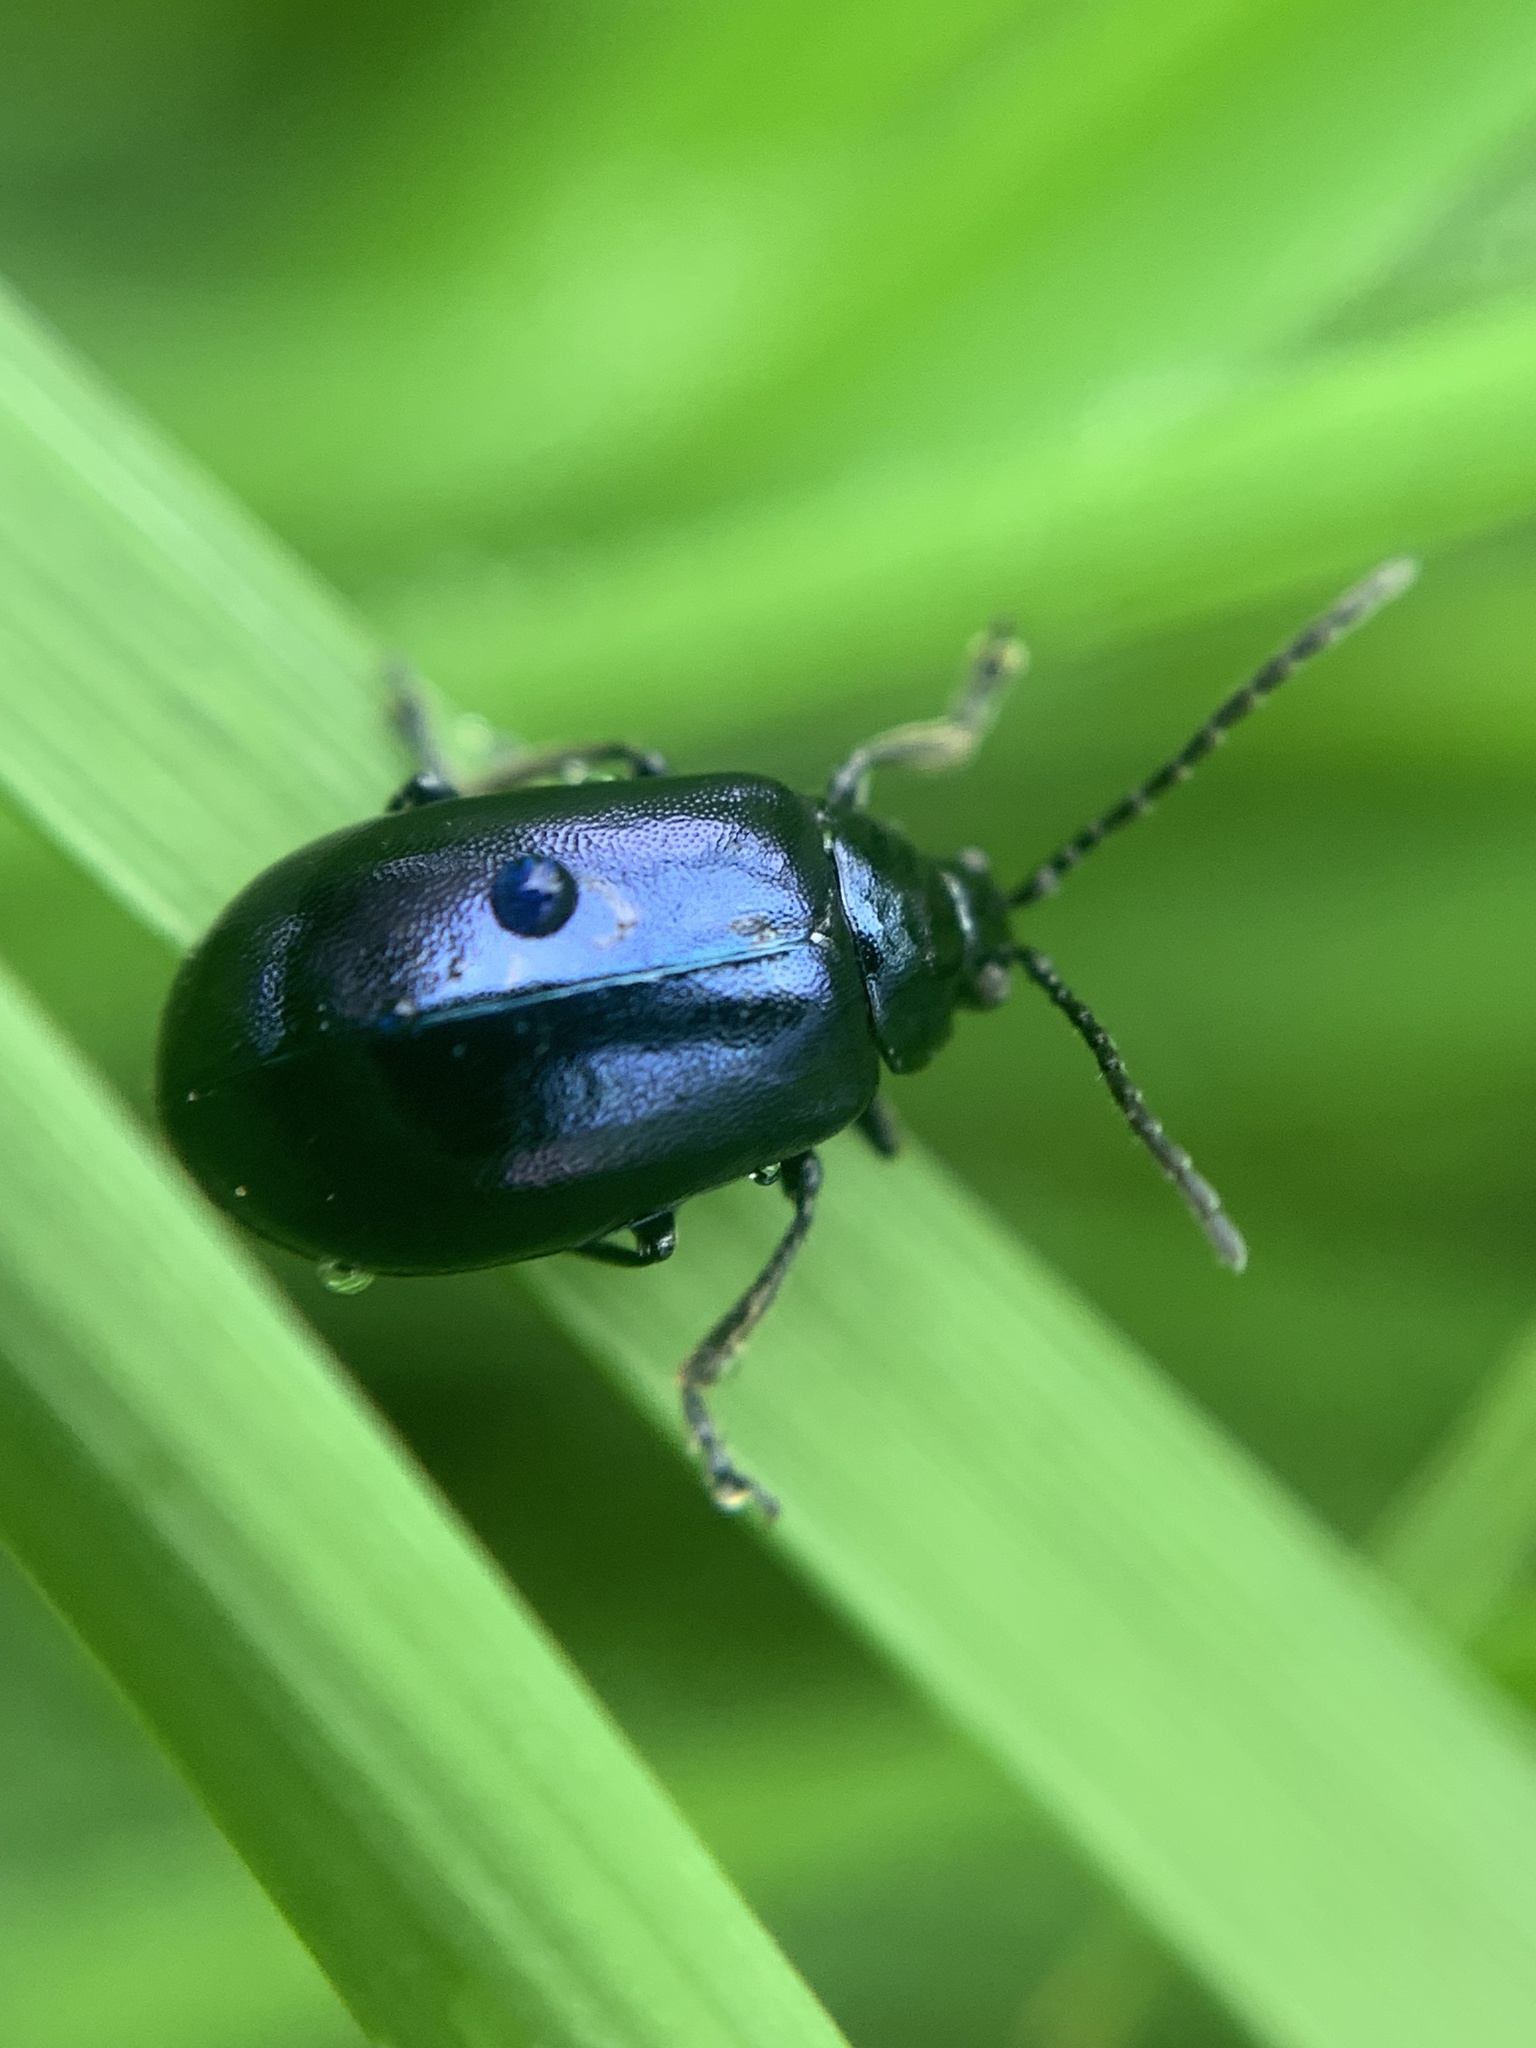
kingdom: Animalia
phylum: Arthropoda
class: Insecta
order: Coleoptera
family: Chrysomelidae
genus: Agelastica
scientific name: Agelastica alni
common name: Alder leaf beetle
